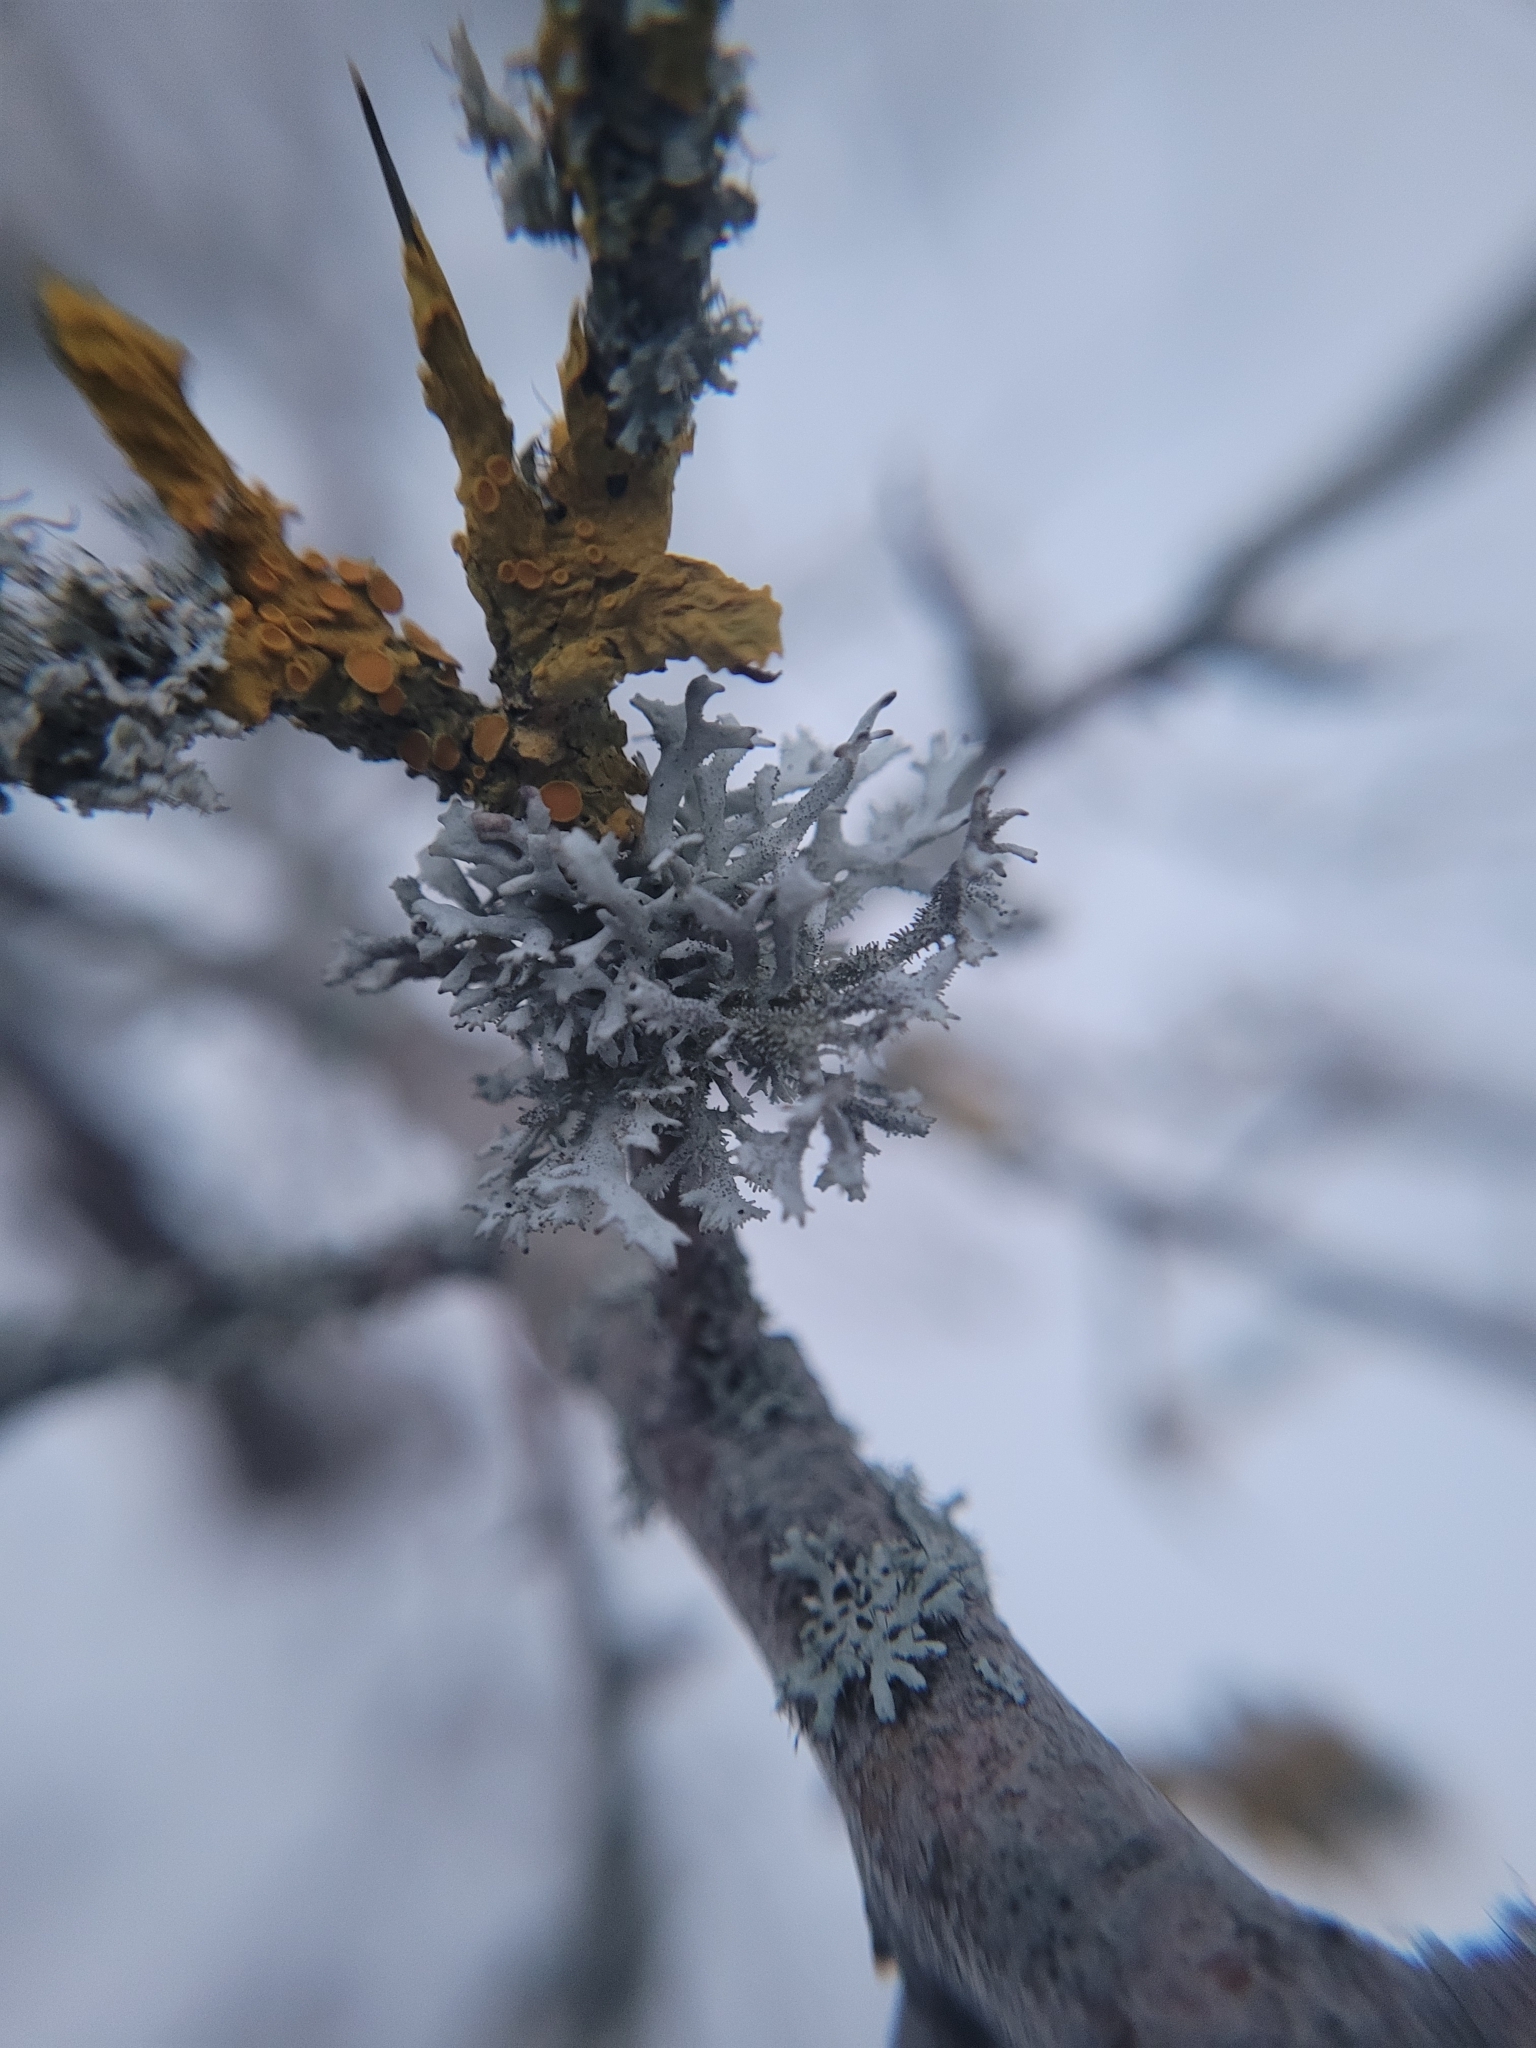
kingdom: Fungi
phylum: Ascomycota
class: Lecanoromycetes
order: Lecanorales
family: Parmeliaceae
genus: Pseudevernia
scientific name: Pseudevernia furfuracea
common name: Tree moss
